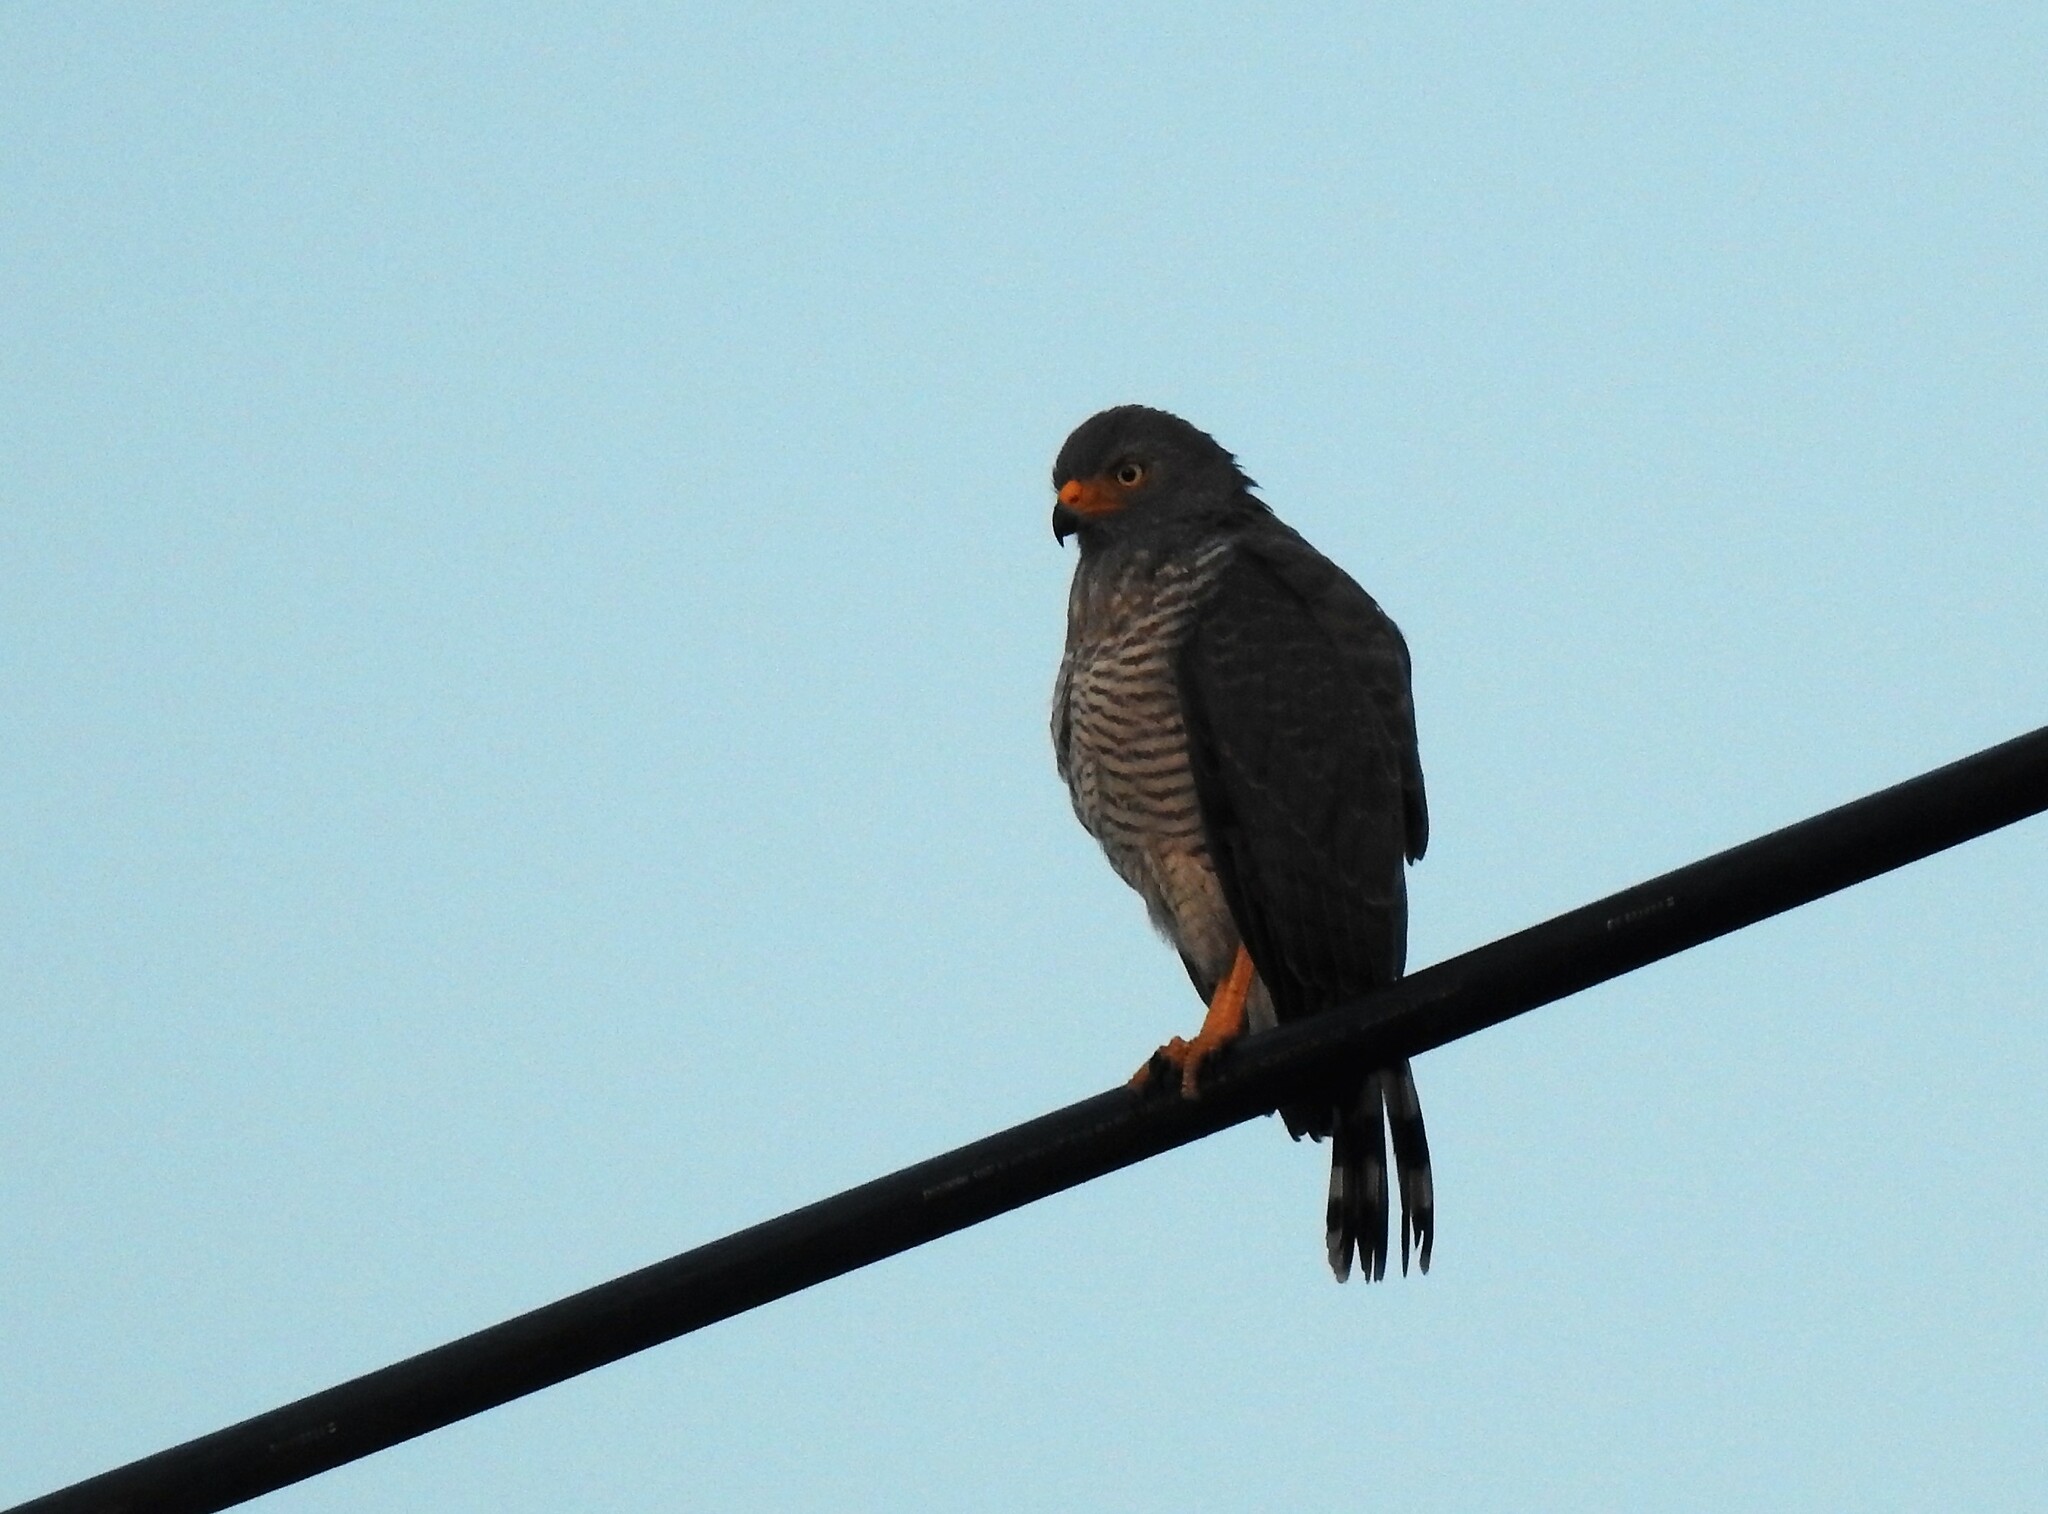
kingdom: Animalia
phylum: Chordata
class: Aves
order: Accipitriformes
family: Accipitridae
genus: Rupornis
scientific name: Rupornis magnirostris
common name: Roadside hawk
